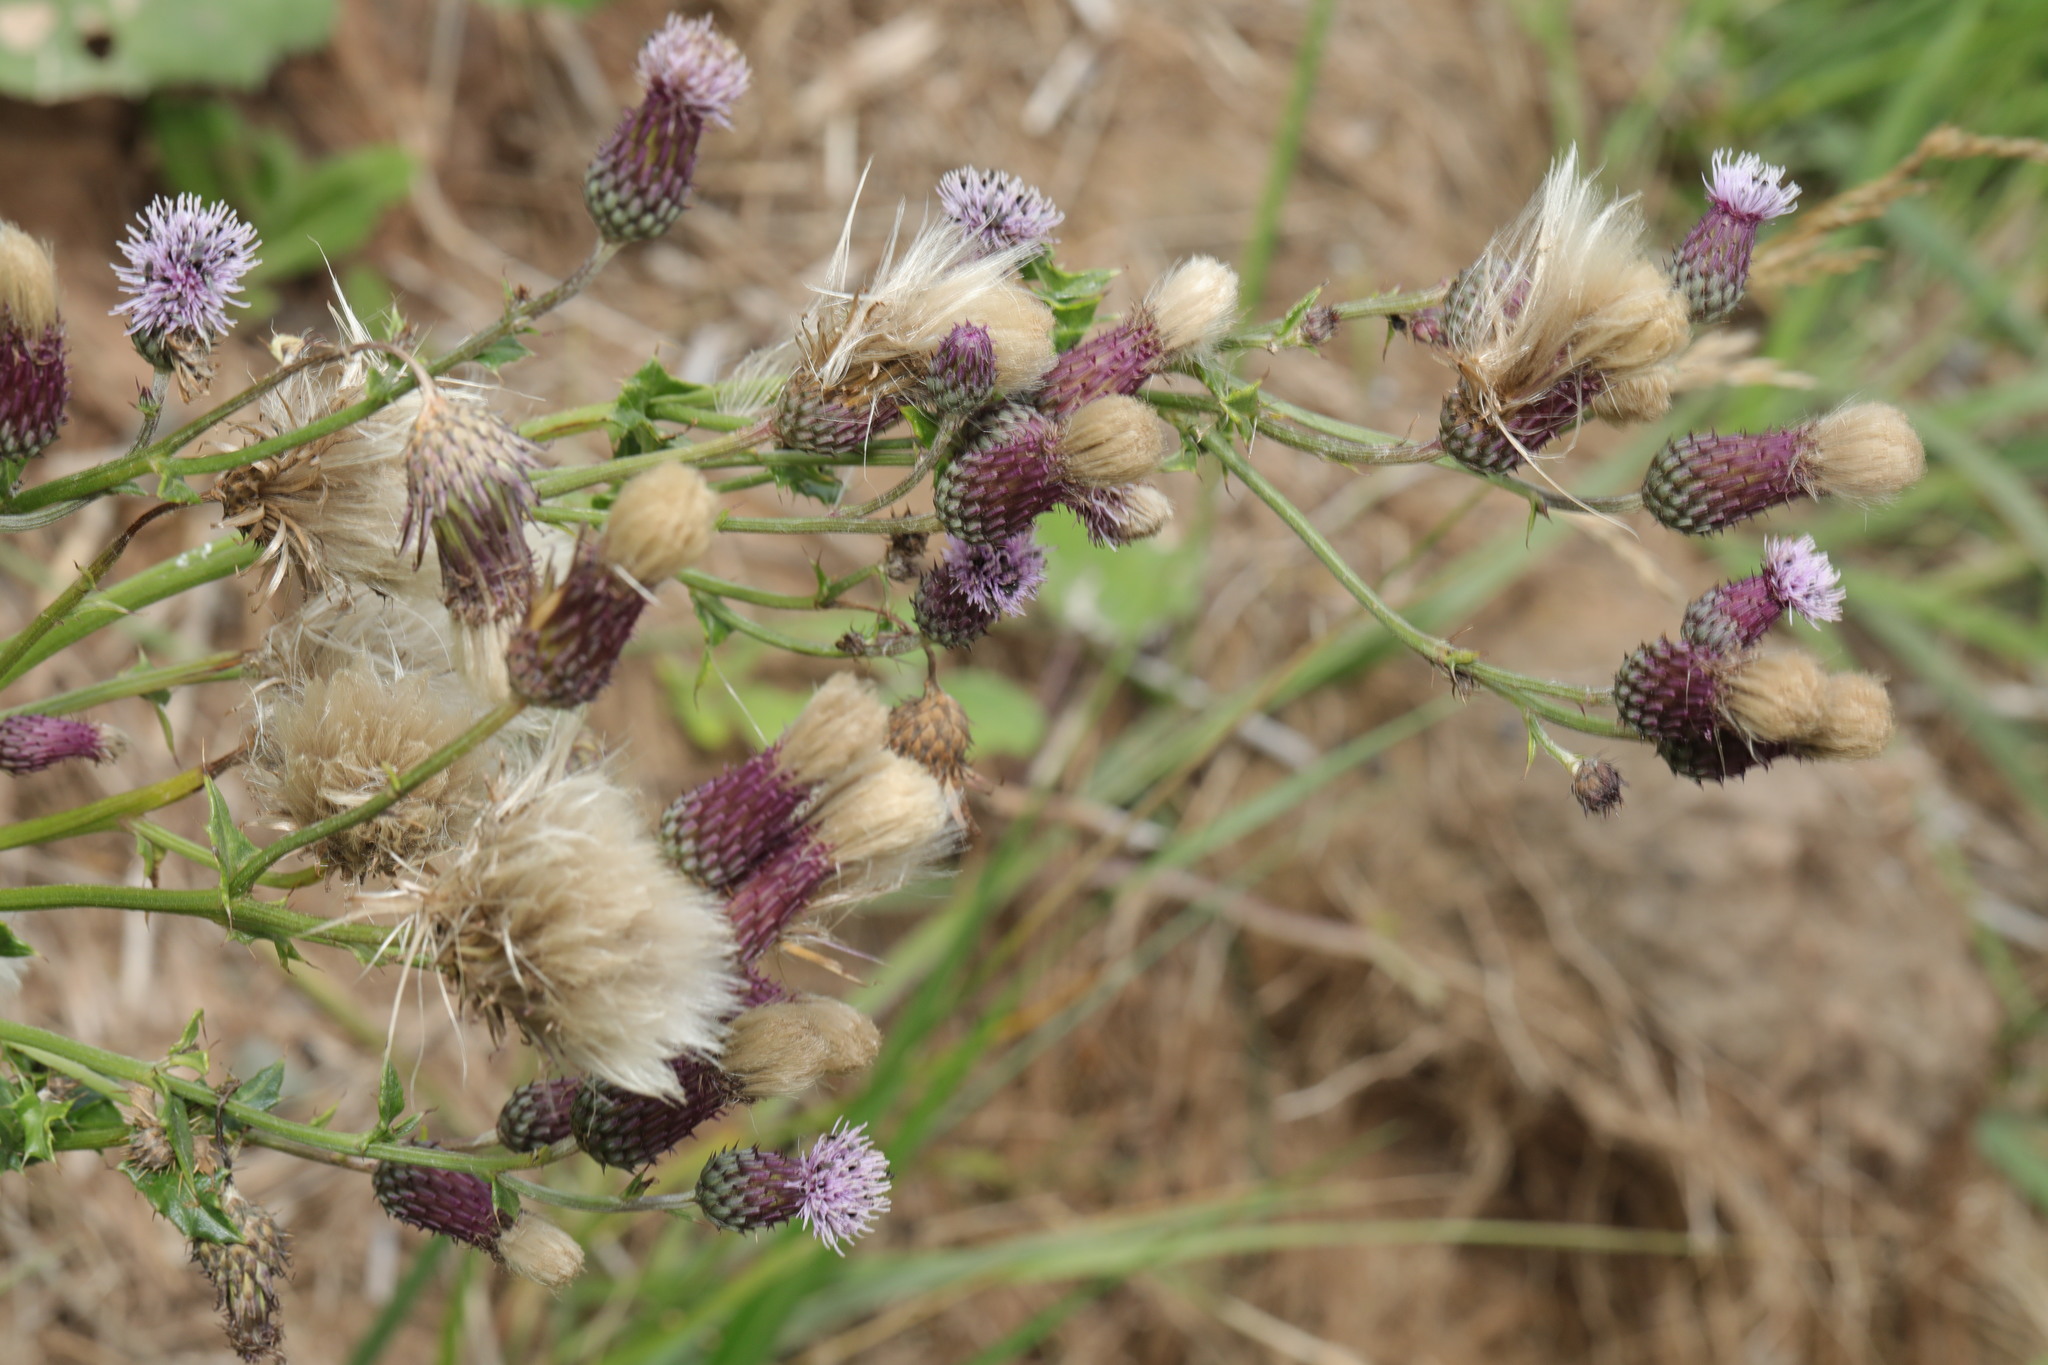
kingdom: Plantae
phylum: Tracheophyta
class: Magnoliopsida
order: Asterales
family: Asteraceae
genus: Cirsium
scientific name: Cirsium arvense
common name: Creeping thistle
